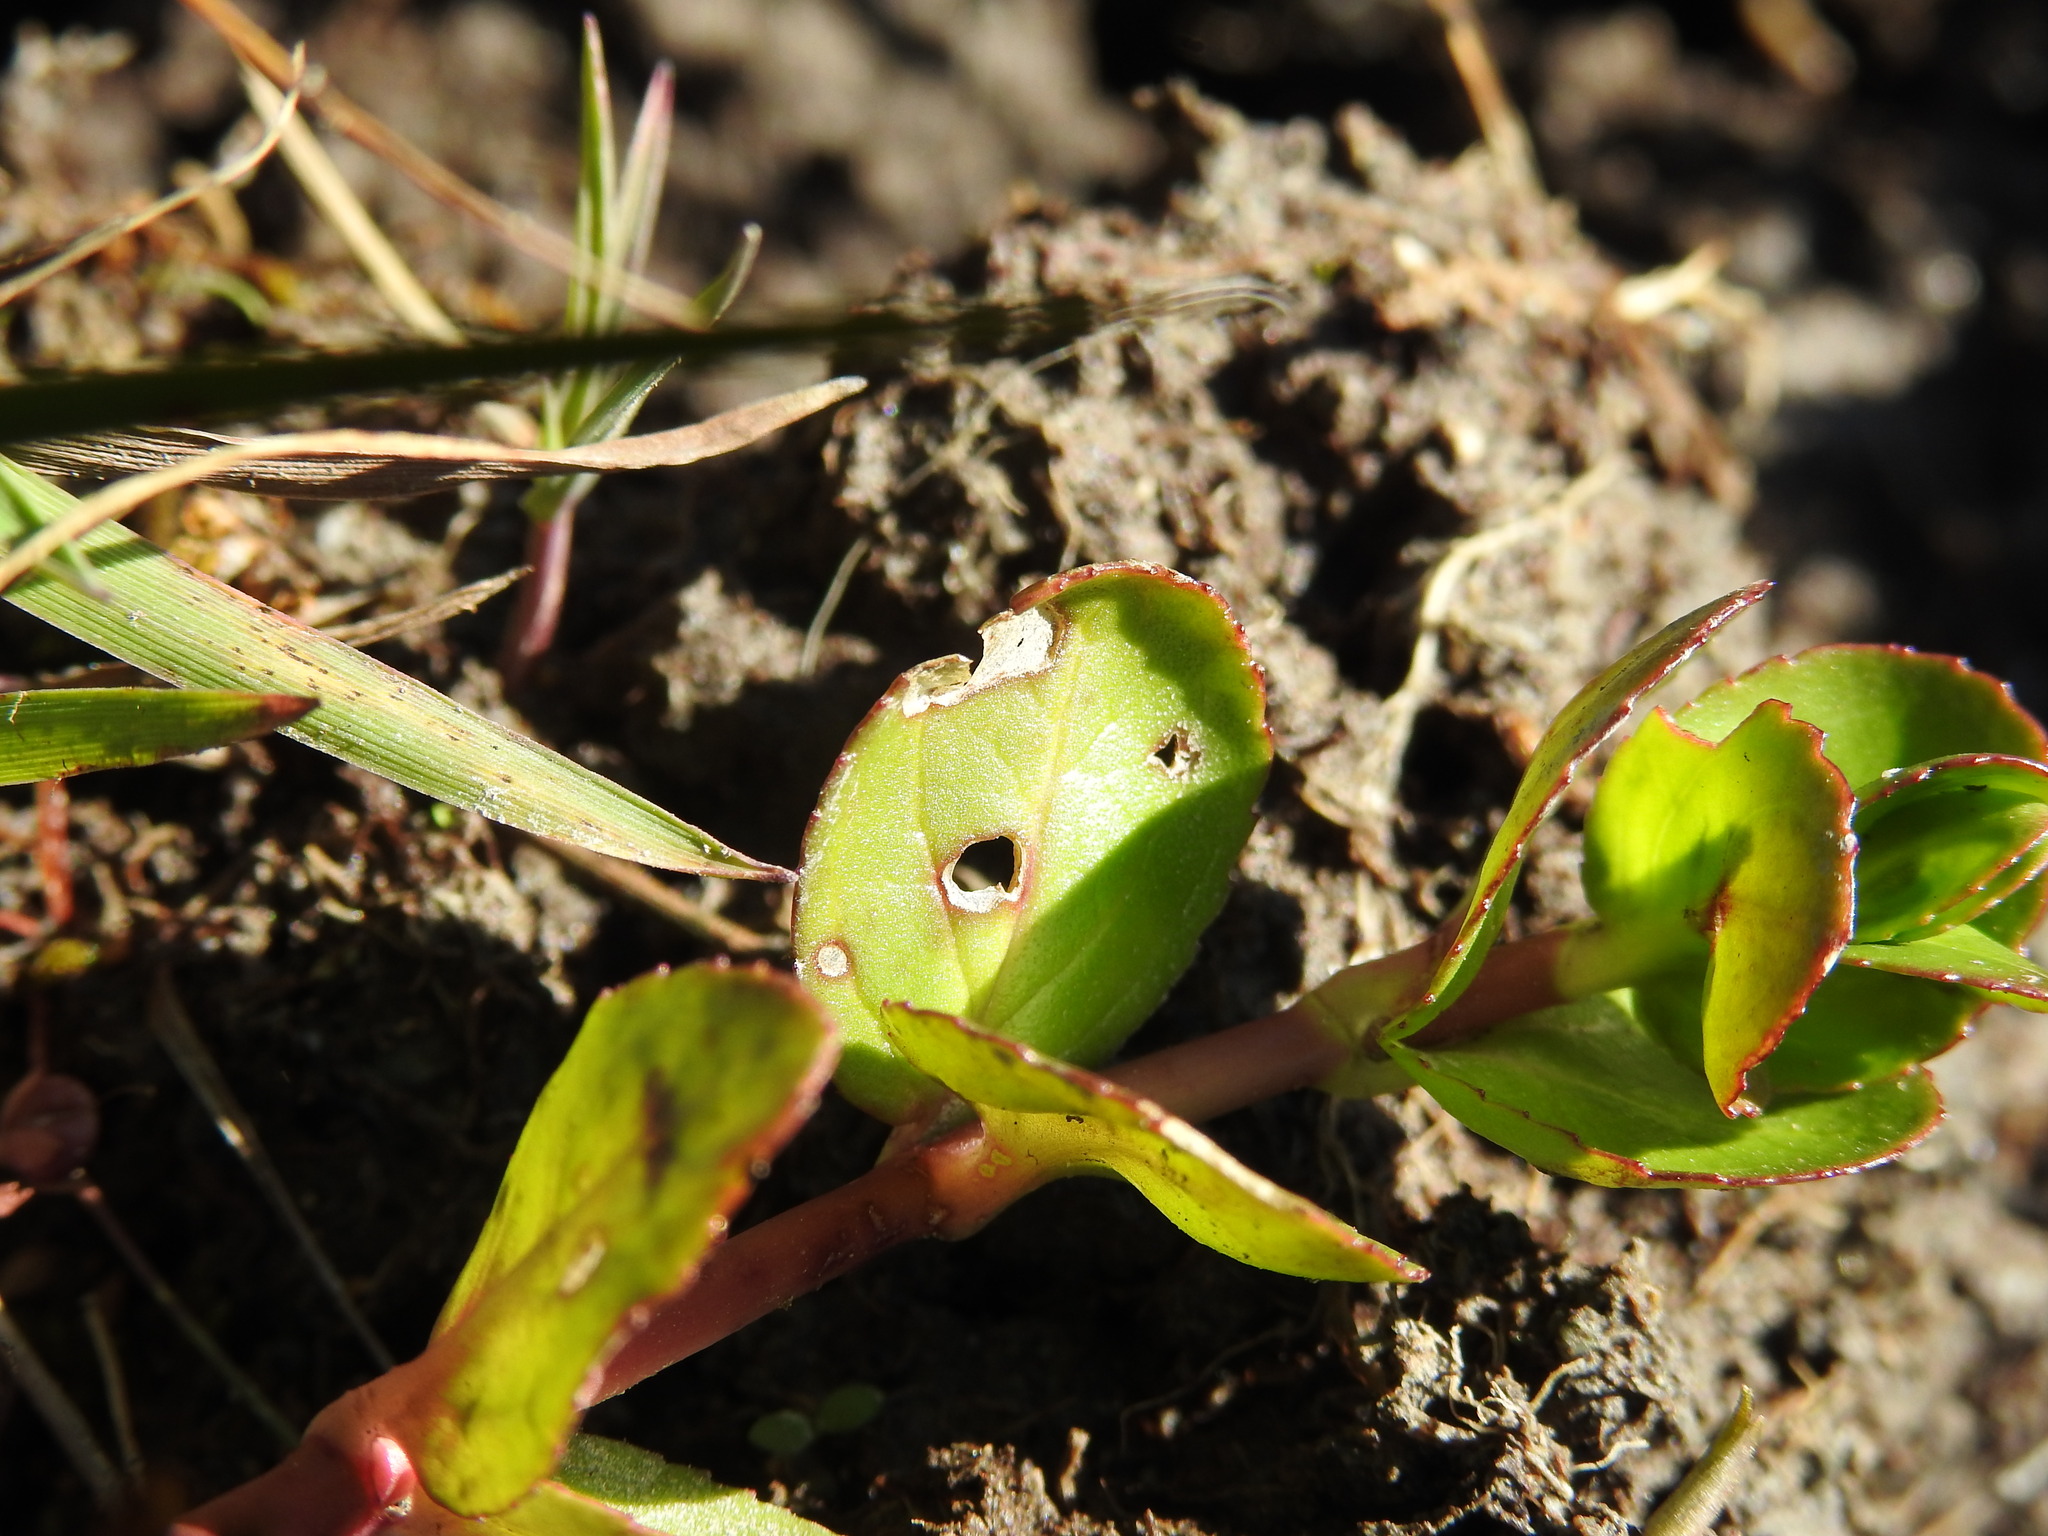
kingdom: Plantae
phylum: Tracheophyta
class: Magnoliopsida
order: Lamiales
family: Plantaginaceae
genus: Veronica
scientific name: Veronica beccabunga
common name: Brooklime
